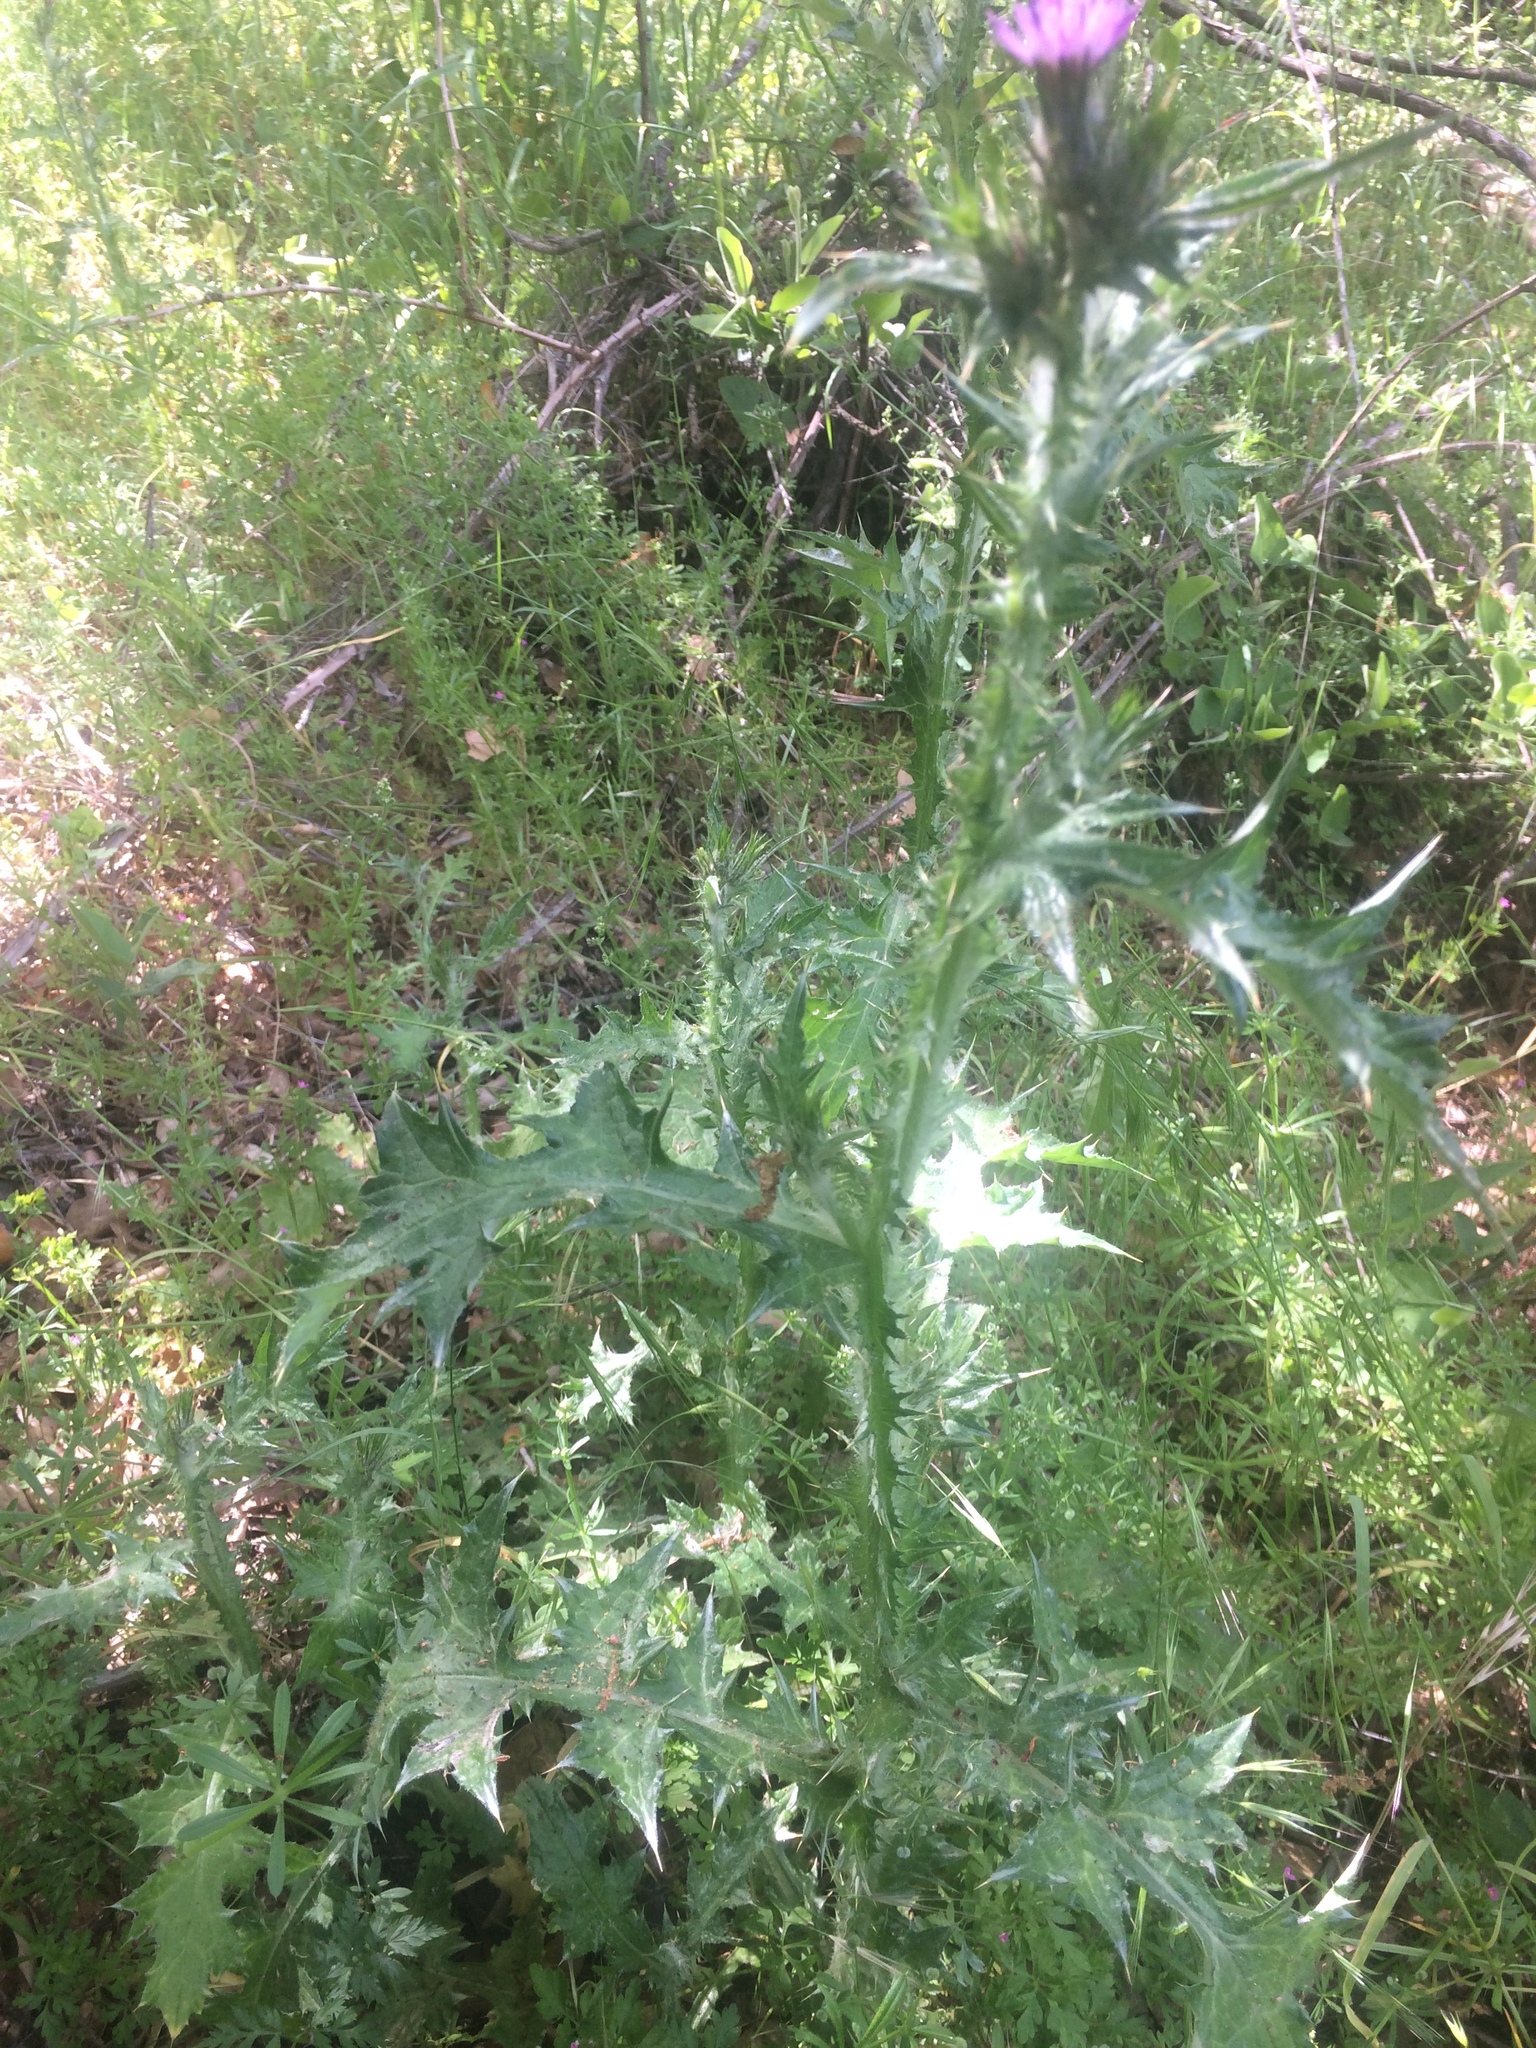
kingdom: Plantae
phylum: Tracheophyta
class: Magnoliopsida
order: Asterales
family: Asteraceae
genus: Carduus
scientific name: Carduus pycnocephalus
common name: Plymouth thistle
